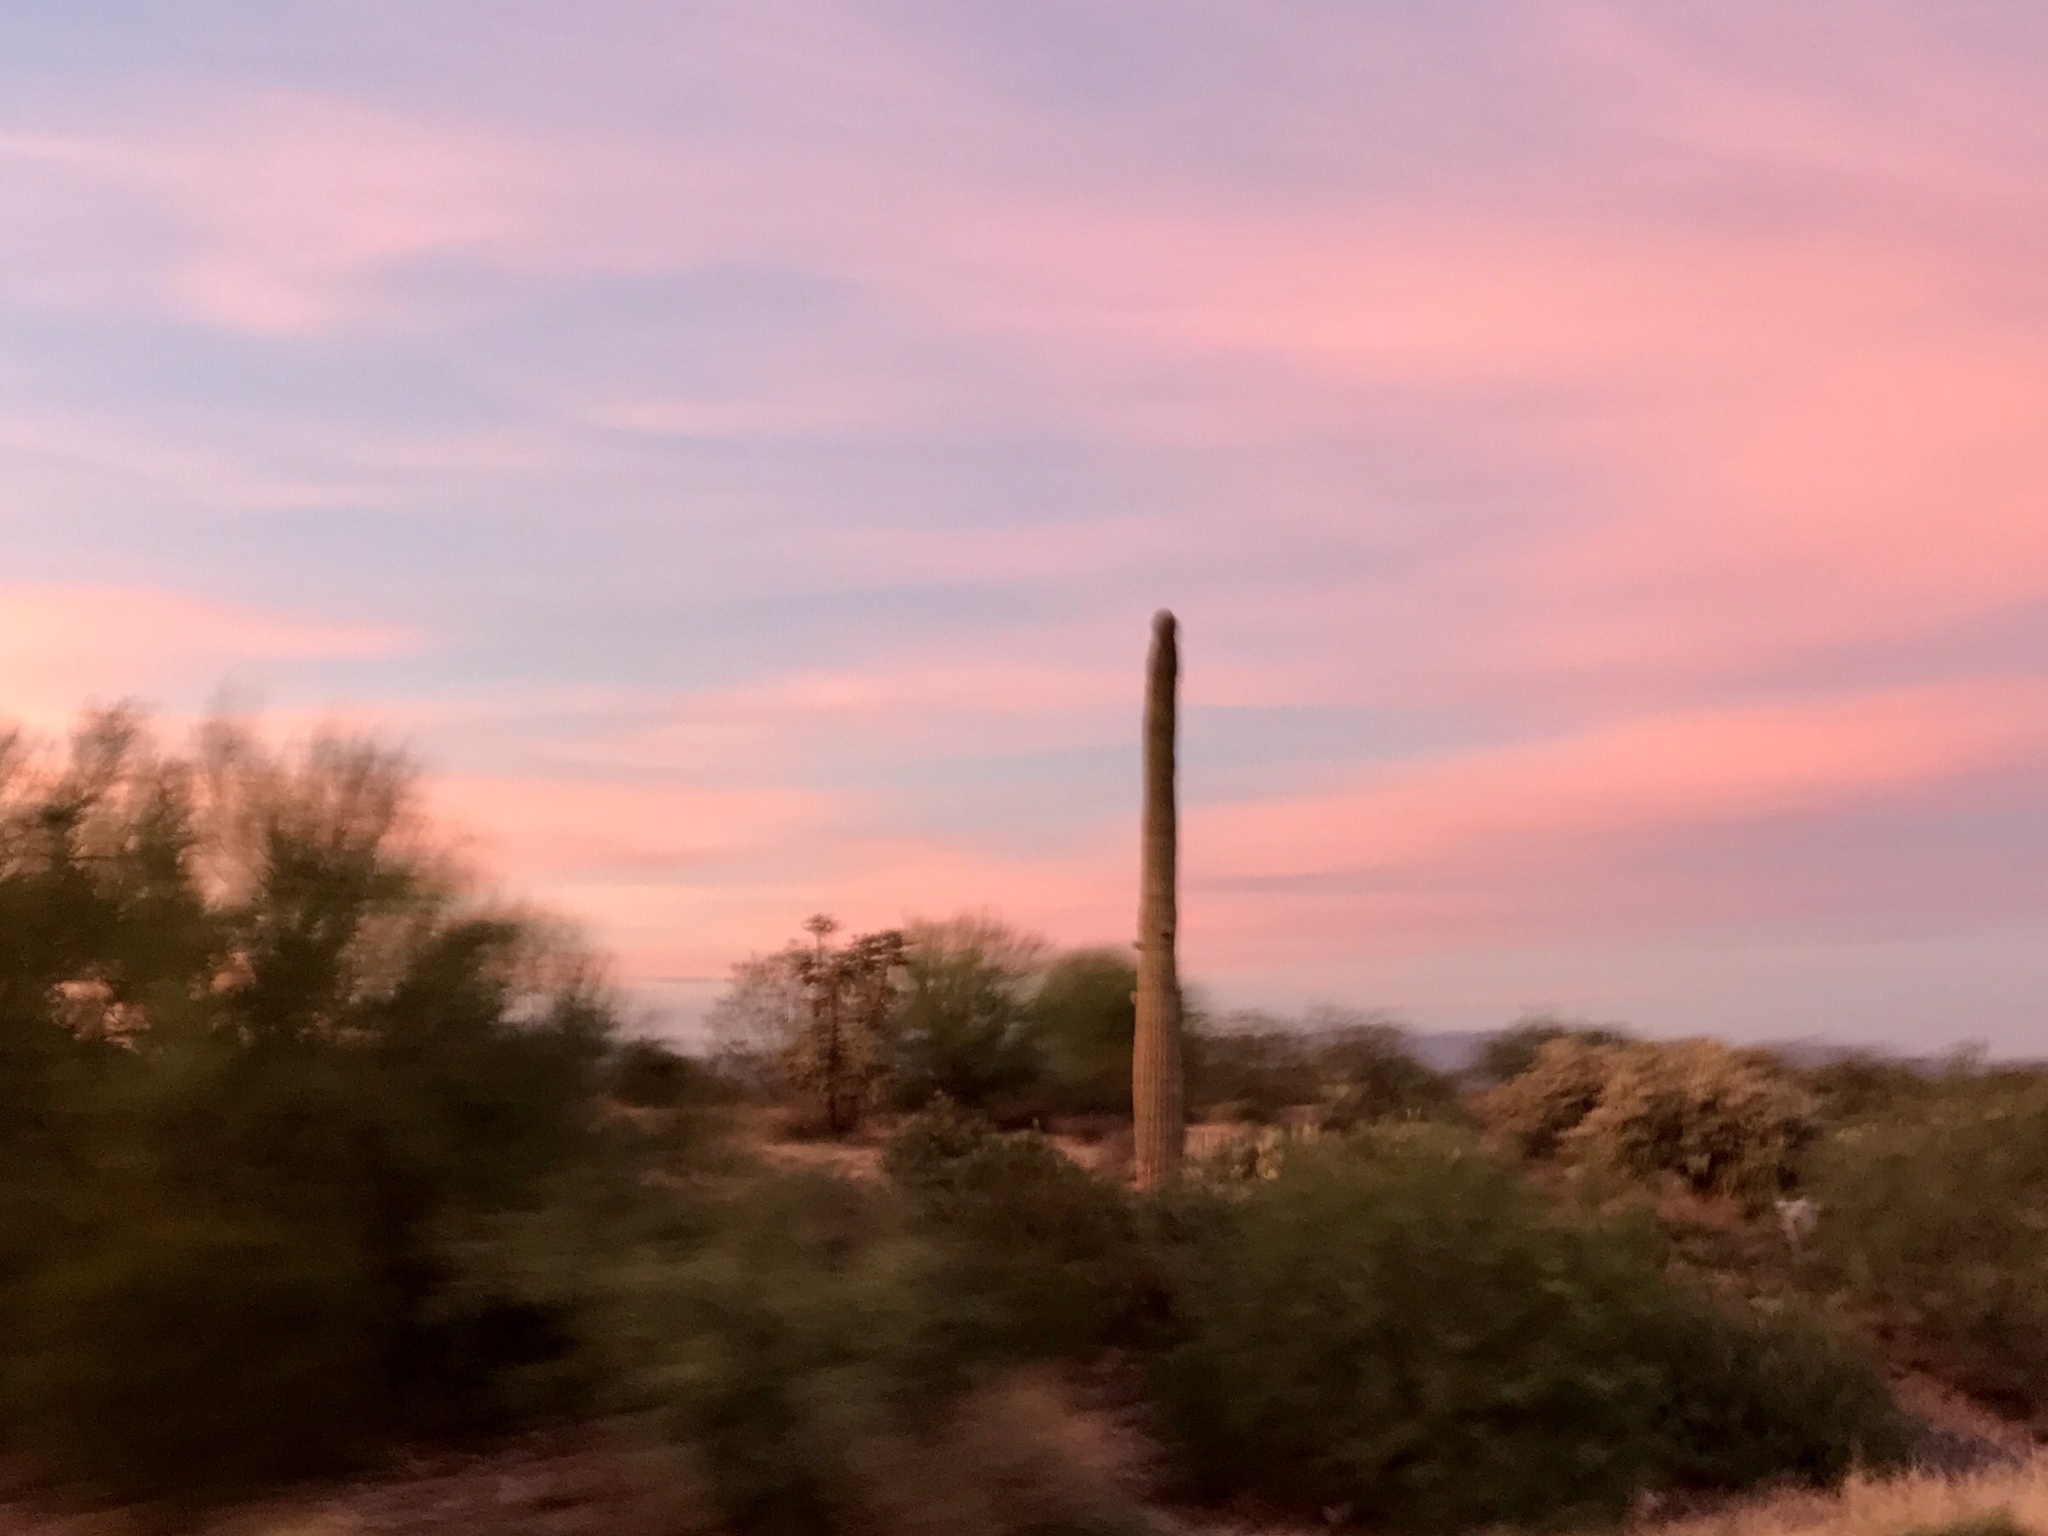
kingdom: Plantae
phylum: Tracheophyta
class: Magnoliopsida
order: Caryophyllales
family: Cactaceae
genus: Carnegiea
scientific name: Carnegiea gigantea
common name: Saguaro
